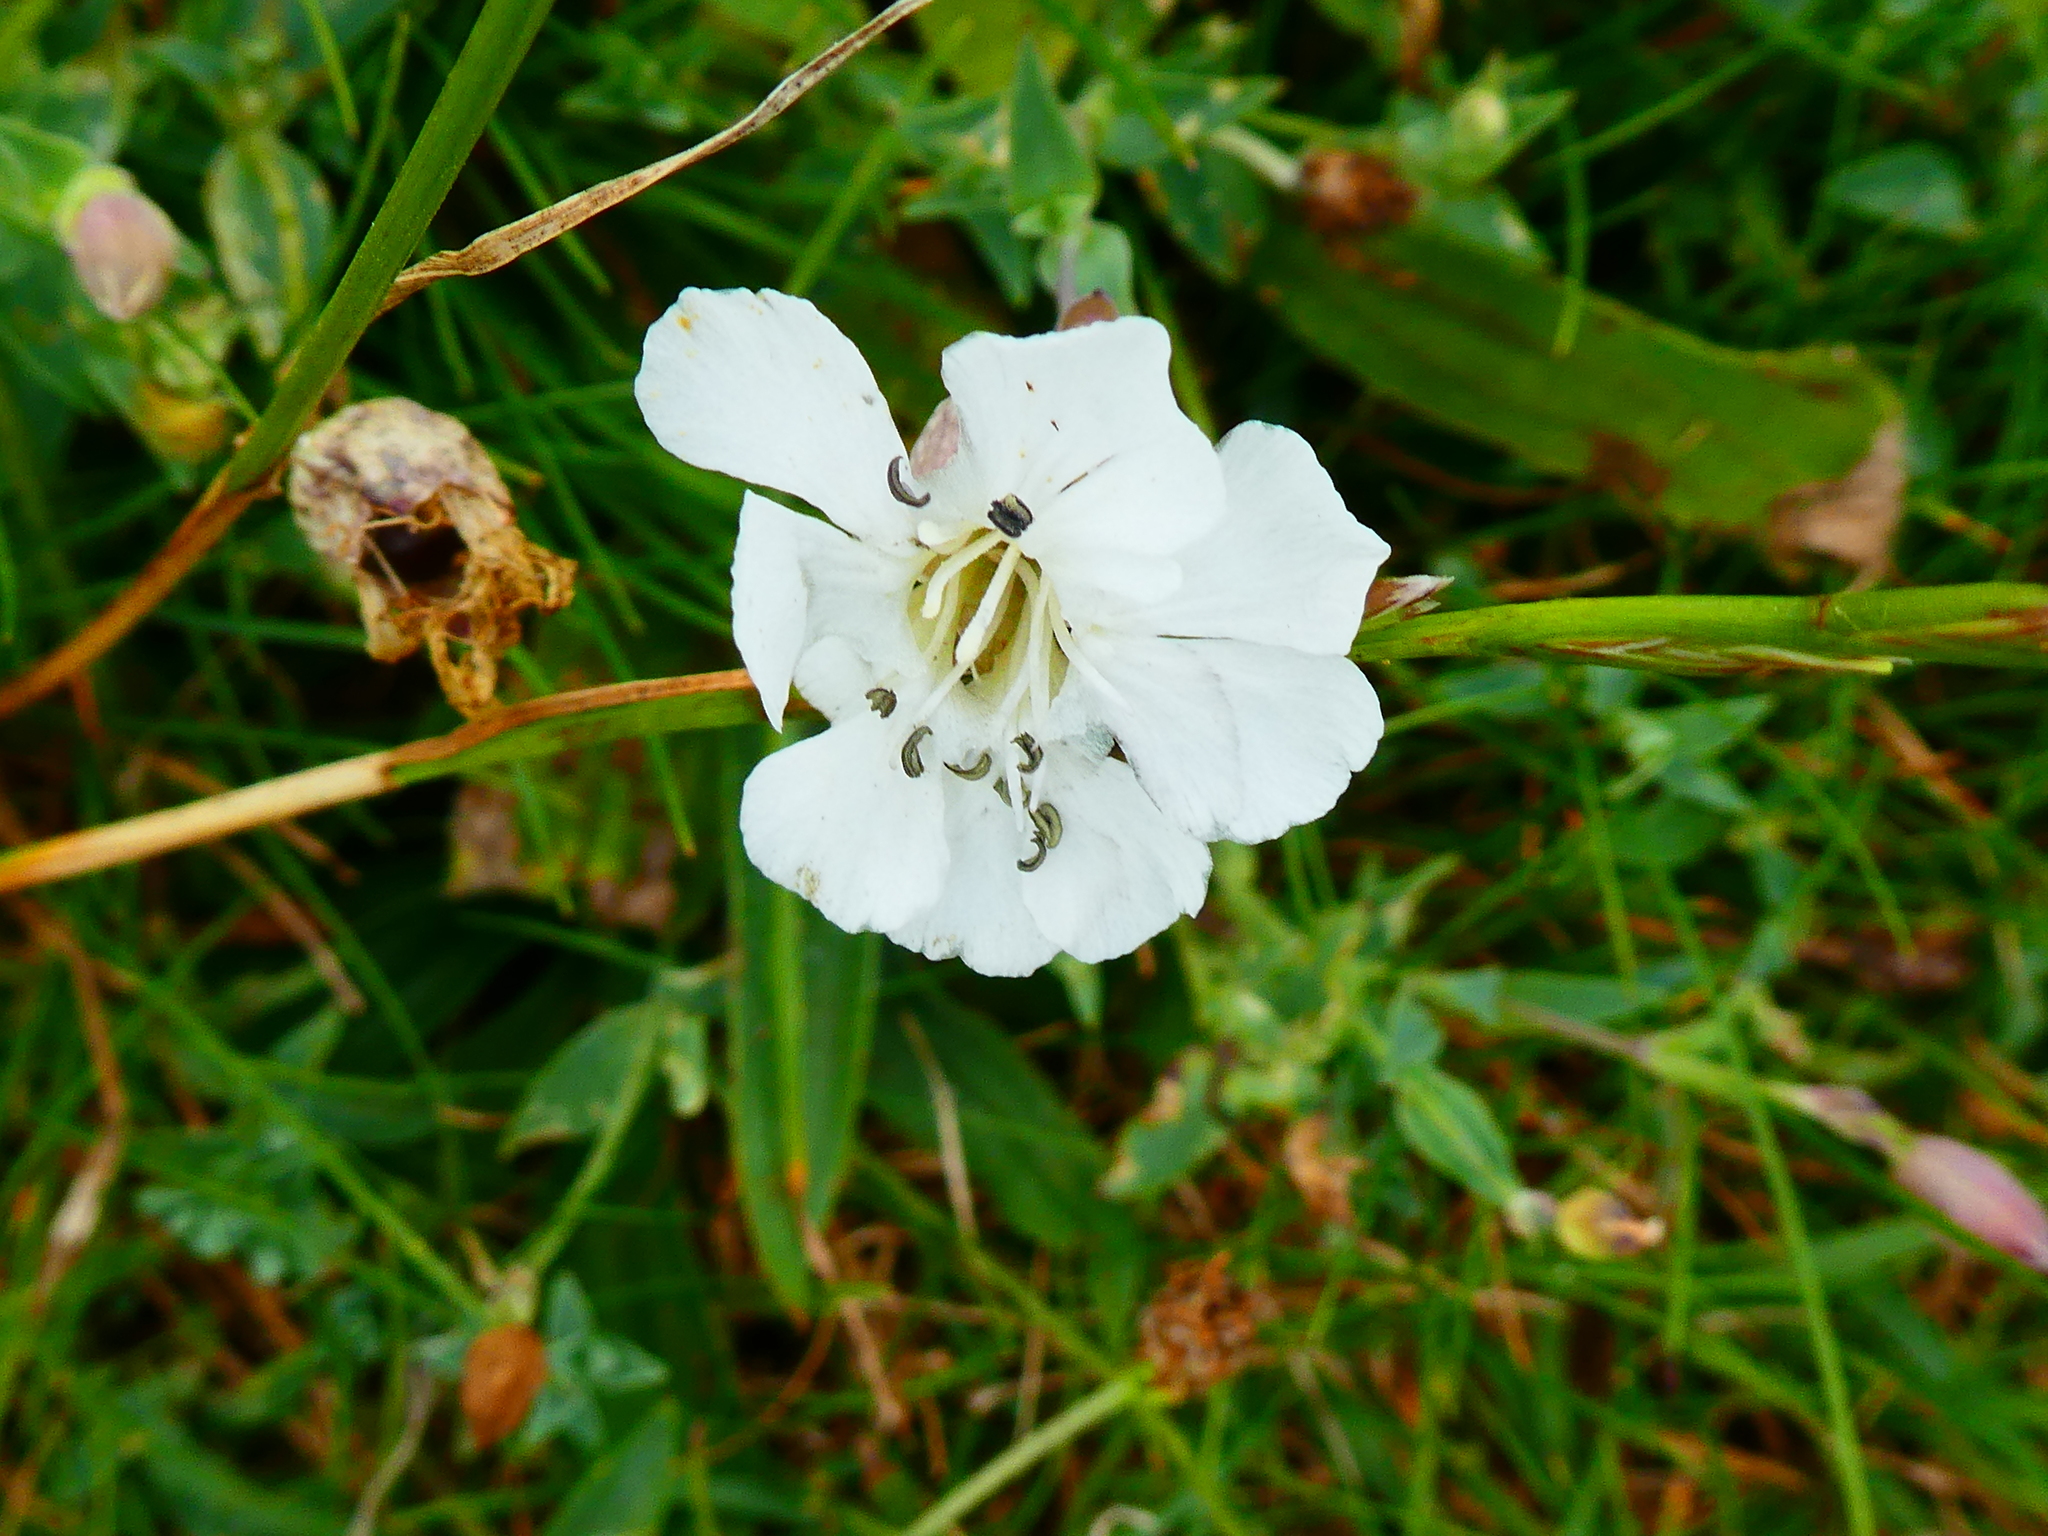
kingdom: Plantae
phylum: Tracheophyta
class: Magnoliopsida
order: Caryophyllales
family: Caryophyllaceae
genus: Silene
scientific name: Silene uniflora
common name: Sea campion
